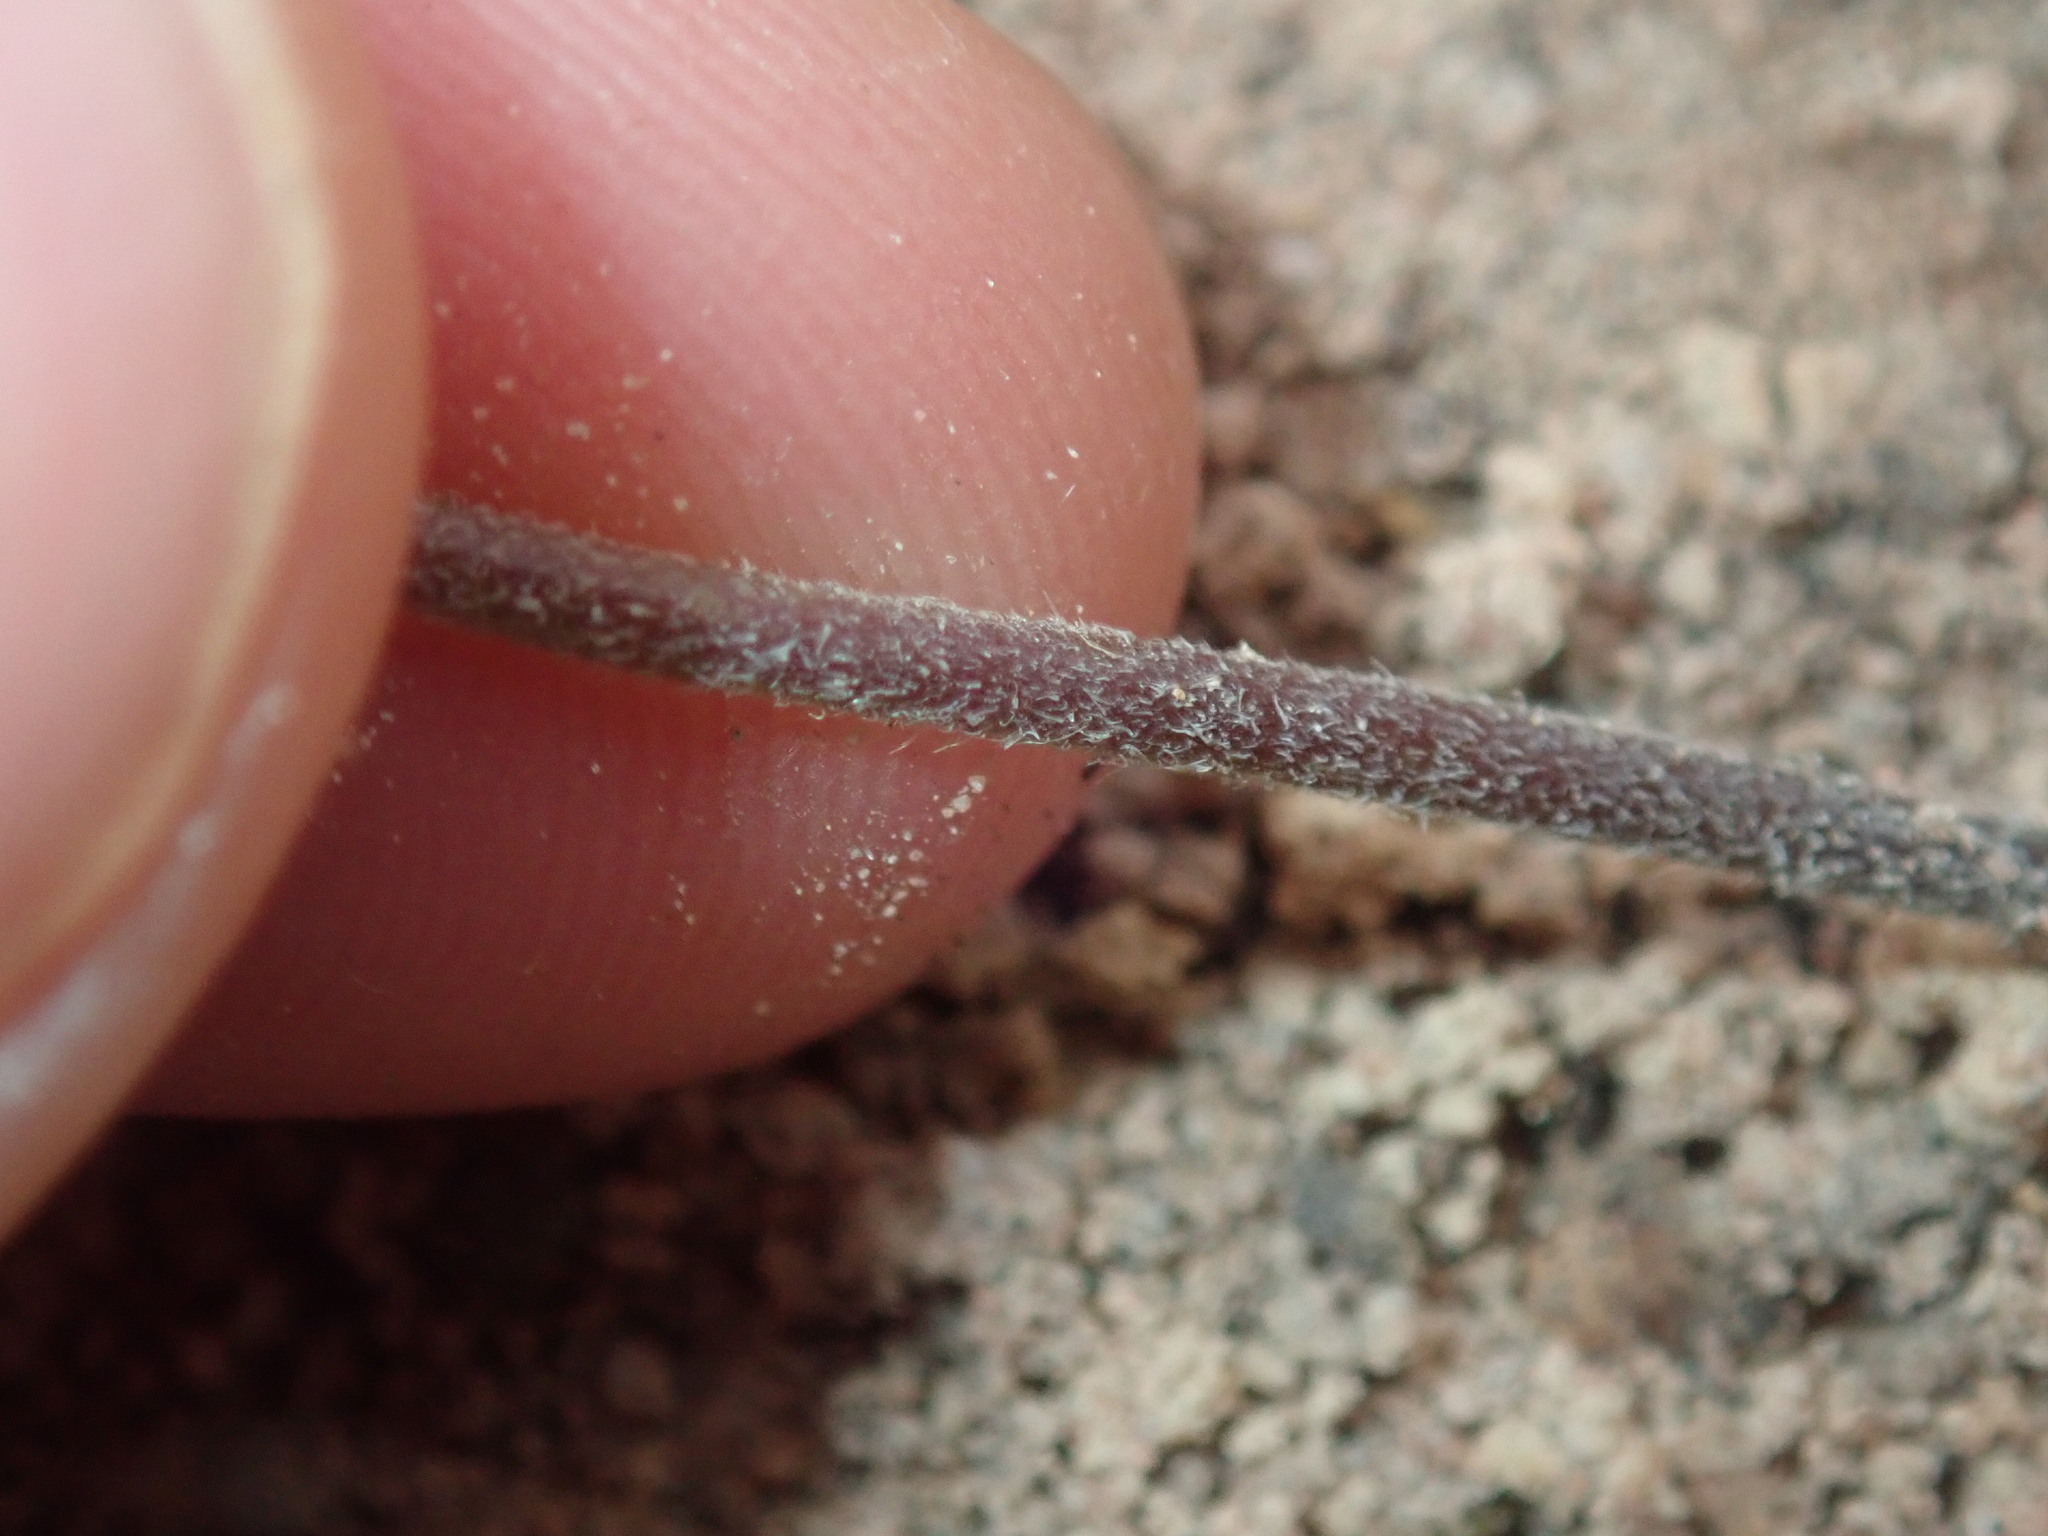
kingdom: Plantae
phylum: Tracheophyta
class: Magnoliopsida
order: Asterales
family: Goodeniaceae
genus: Goodenia
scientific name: Goodenia trinervis
